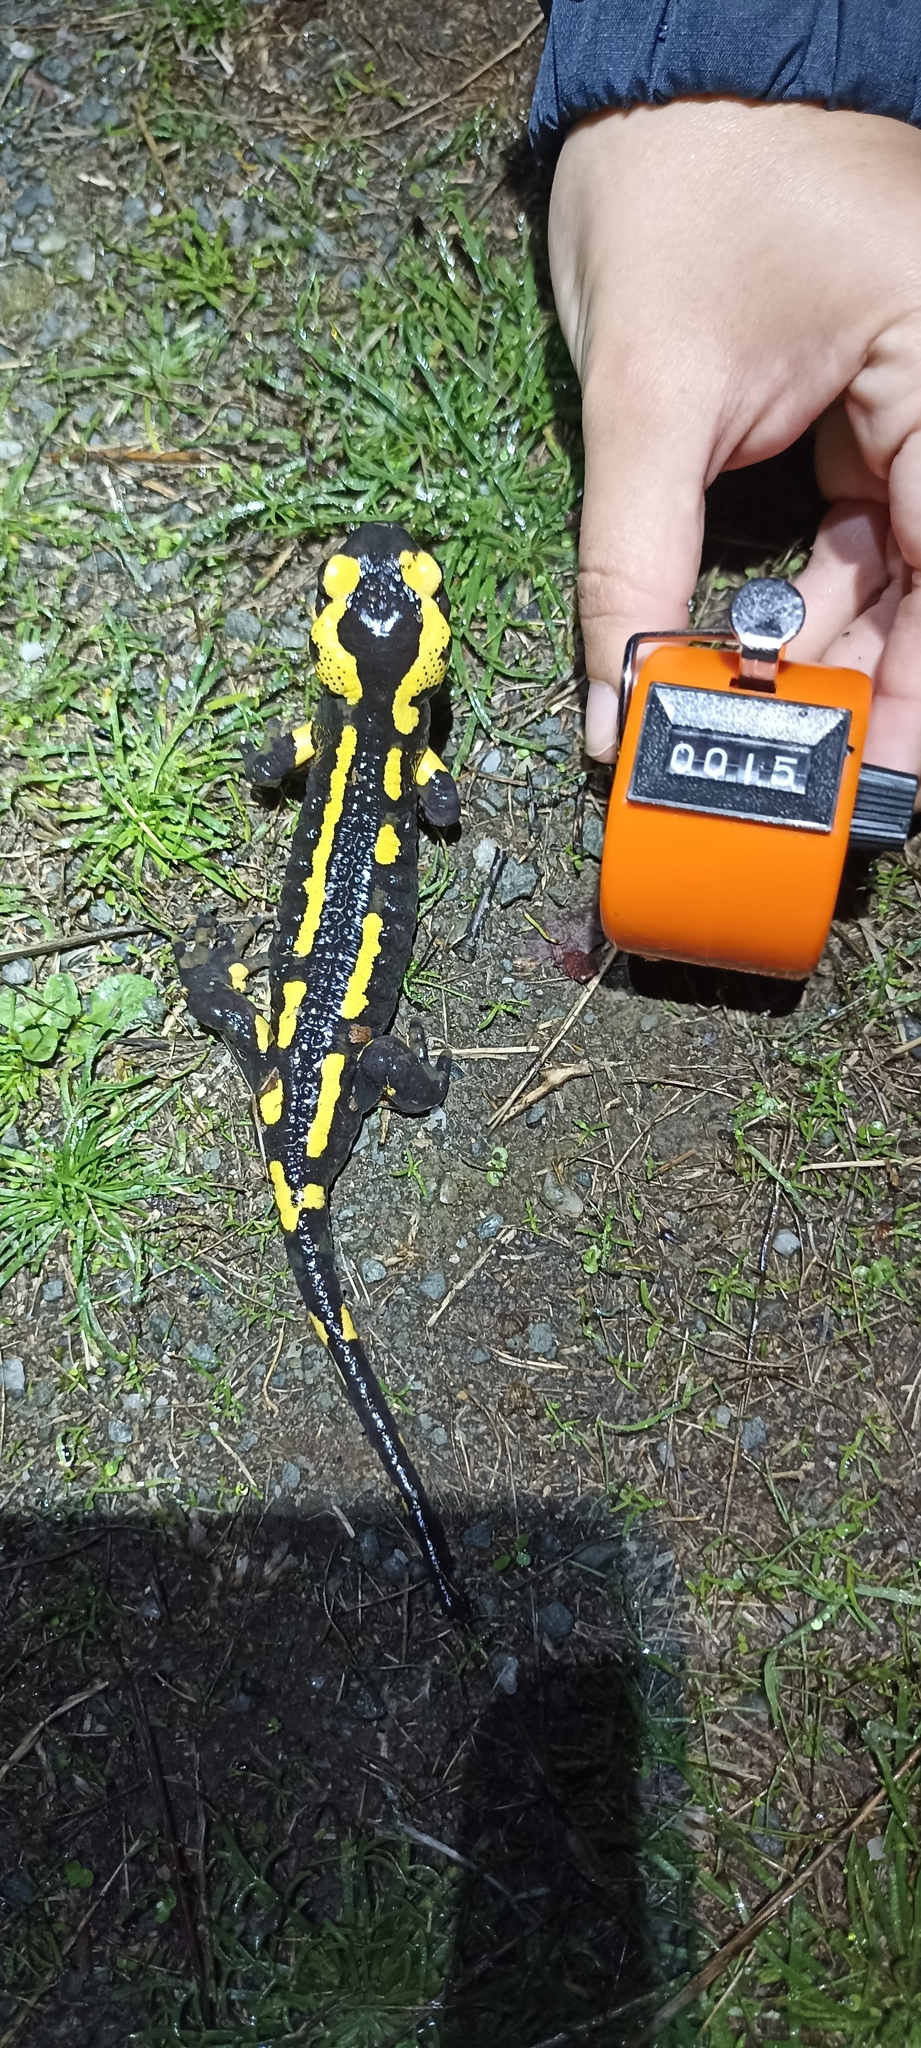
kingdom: Animalia
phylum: Chordata
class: Amphibia
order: Caudata
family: Salamandridae
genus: Salamandra
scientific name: Salamandra salamandra
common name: Fire salamander
